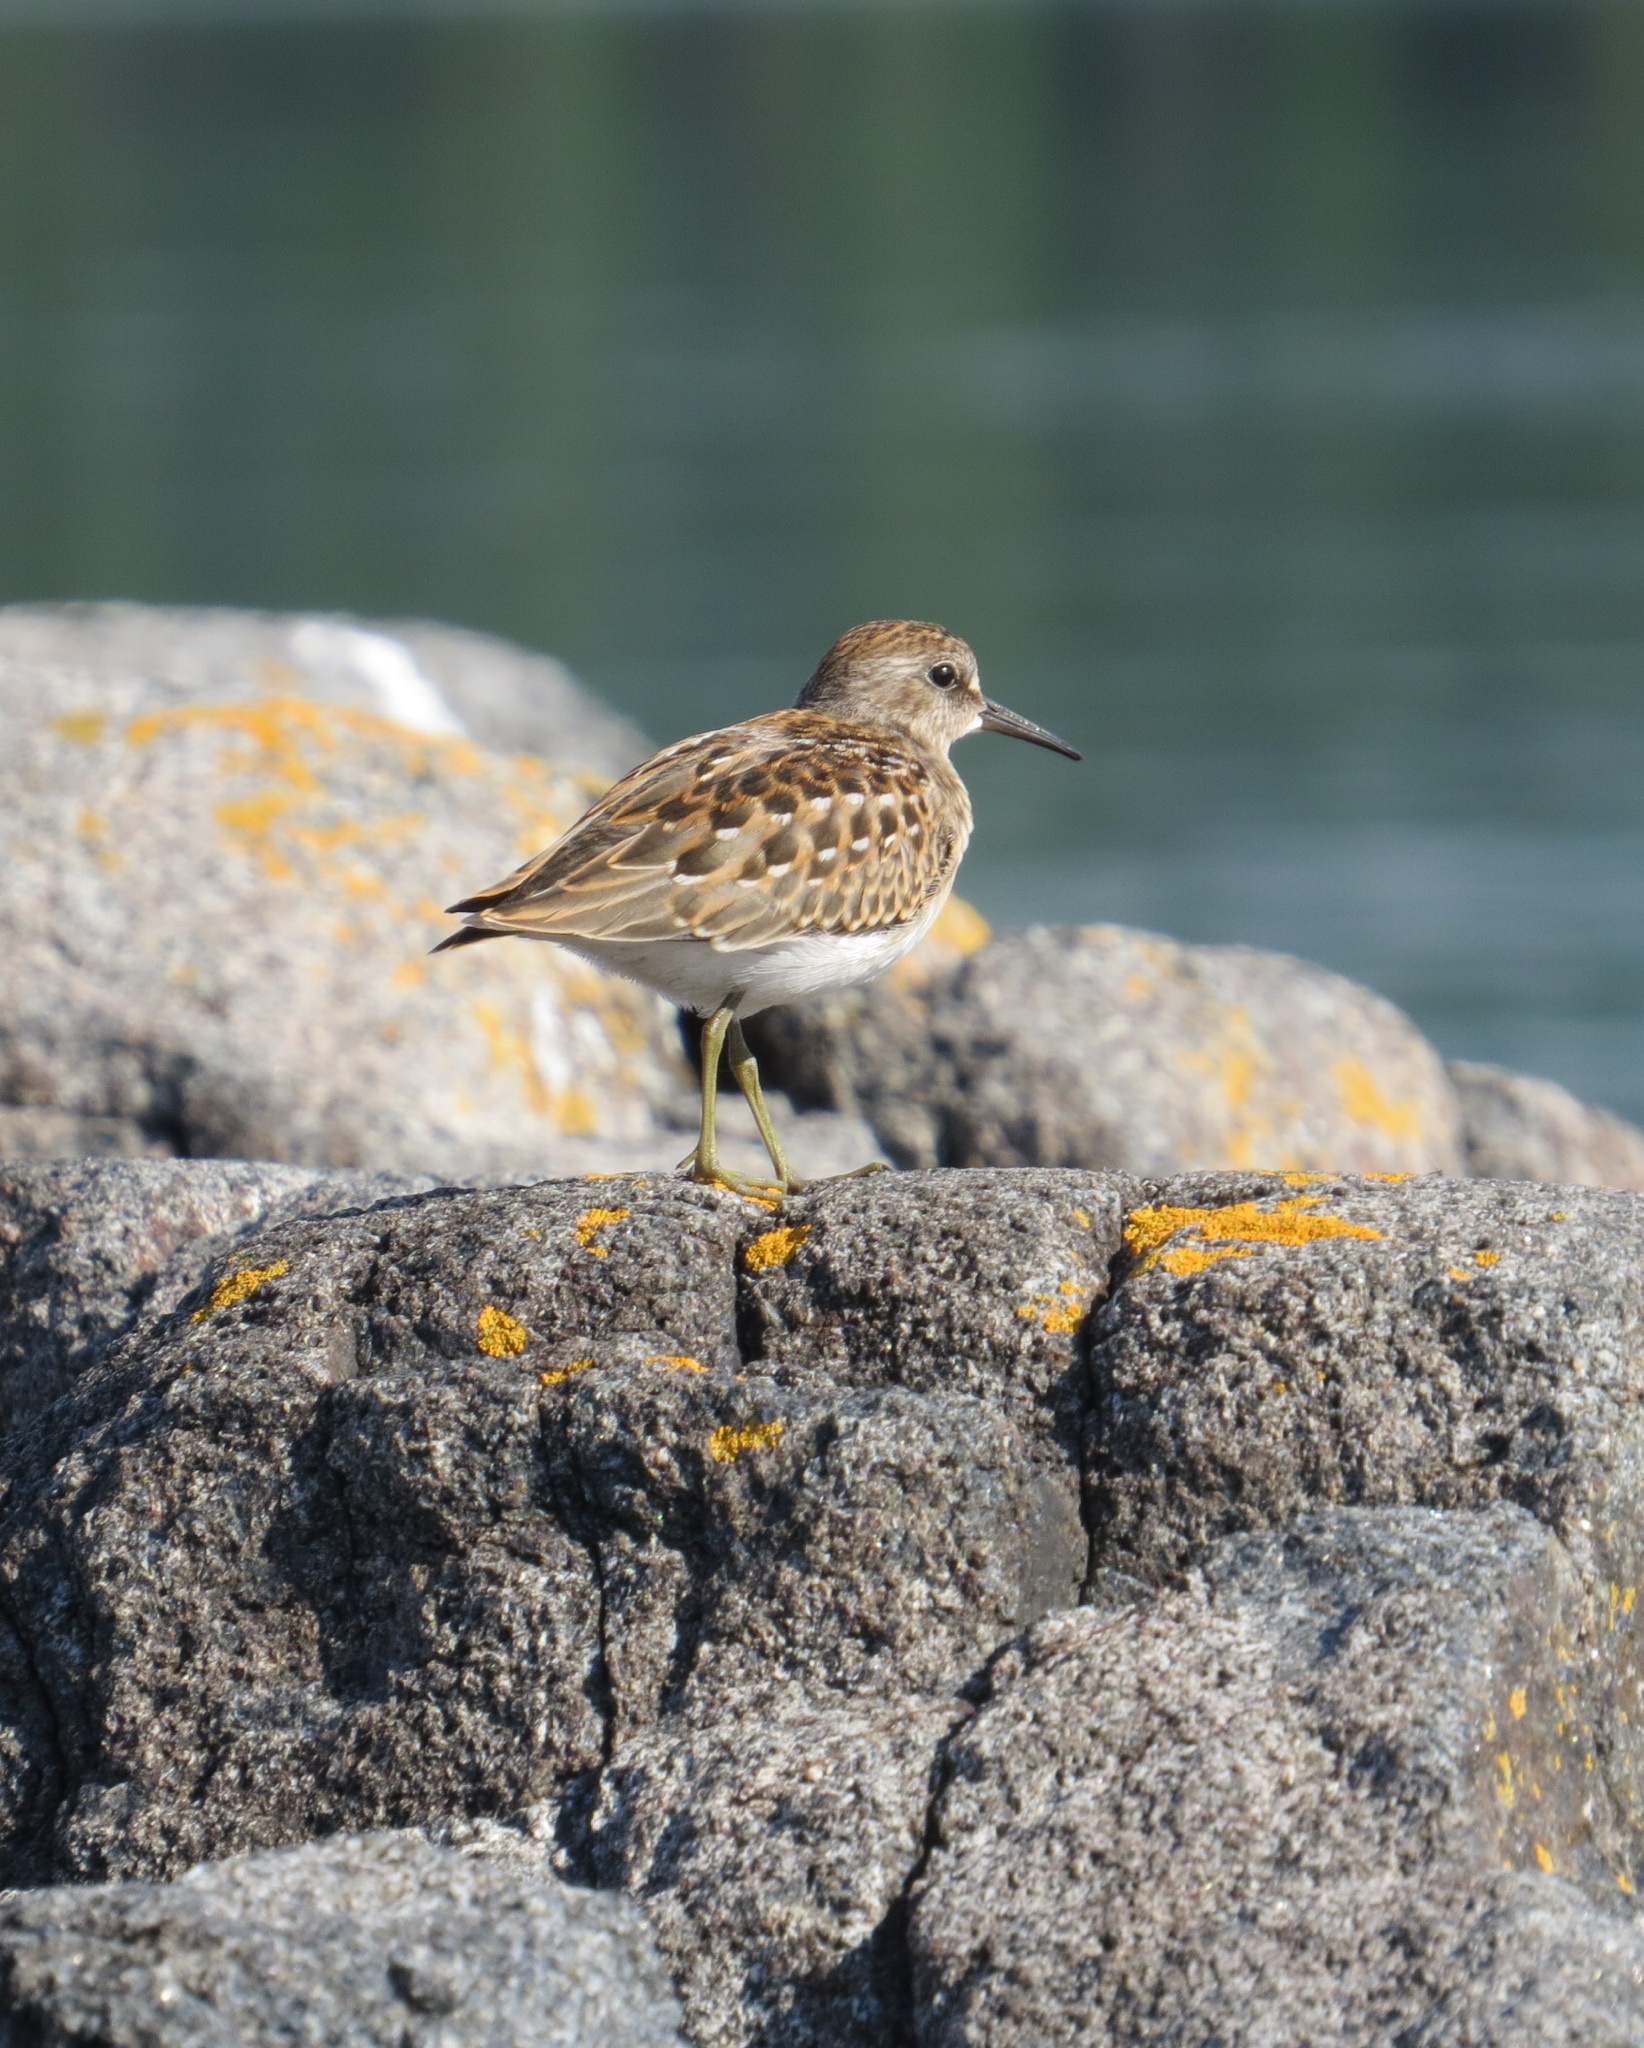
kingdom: Animalia
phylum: Chordata
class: Aves
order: Charadriiformes
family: Scolopacidae
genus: Calidris
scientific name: Calidris minutilla
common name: Least sandpiper
